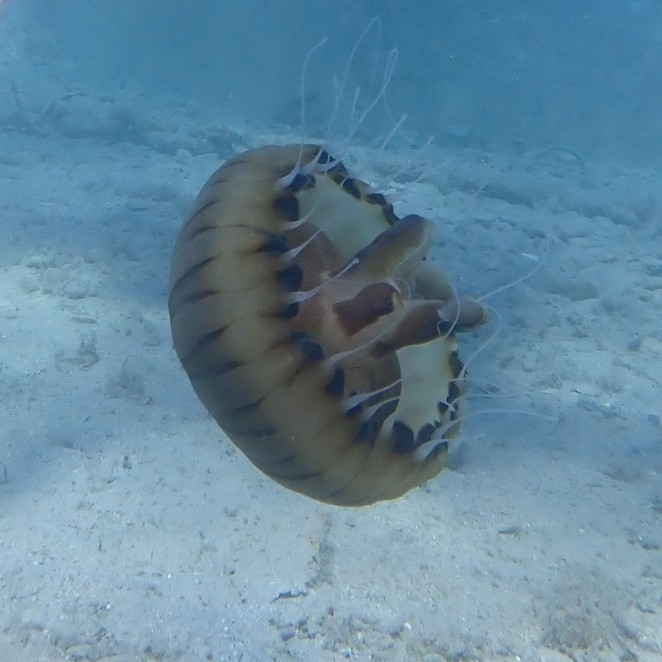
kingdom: Animalia
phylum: Cnidaria
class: Scyphozoa
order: Semaeostomeae
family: Pelagiidae
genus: Chrysaora
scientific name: Chrysaora hysoscella
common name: Compass jellyfish
